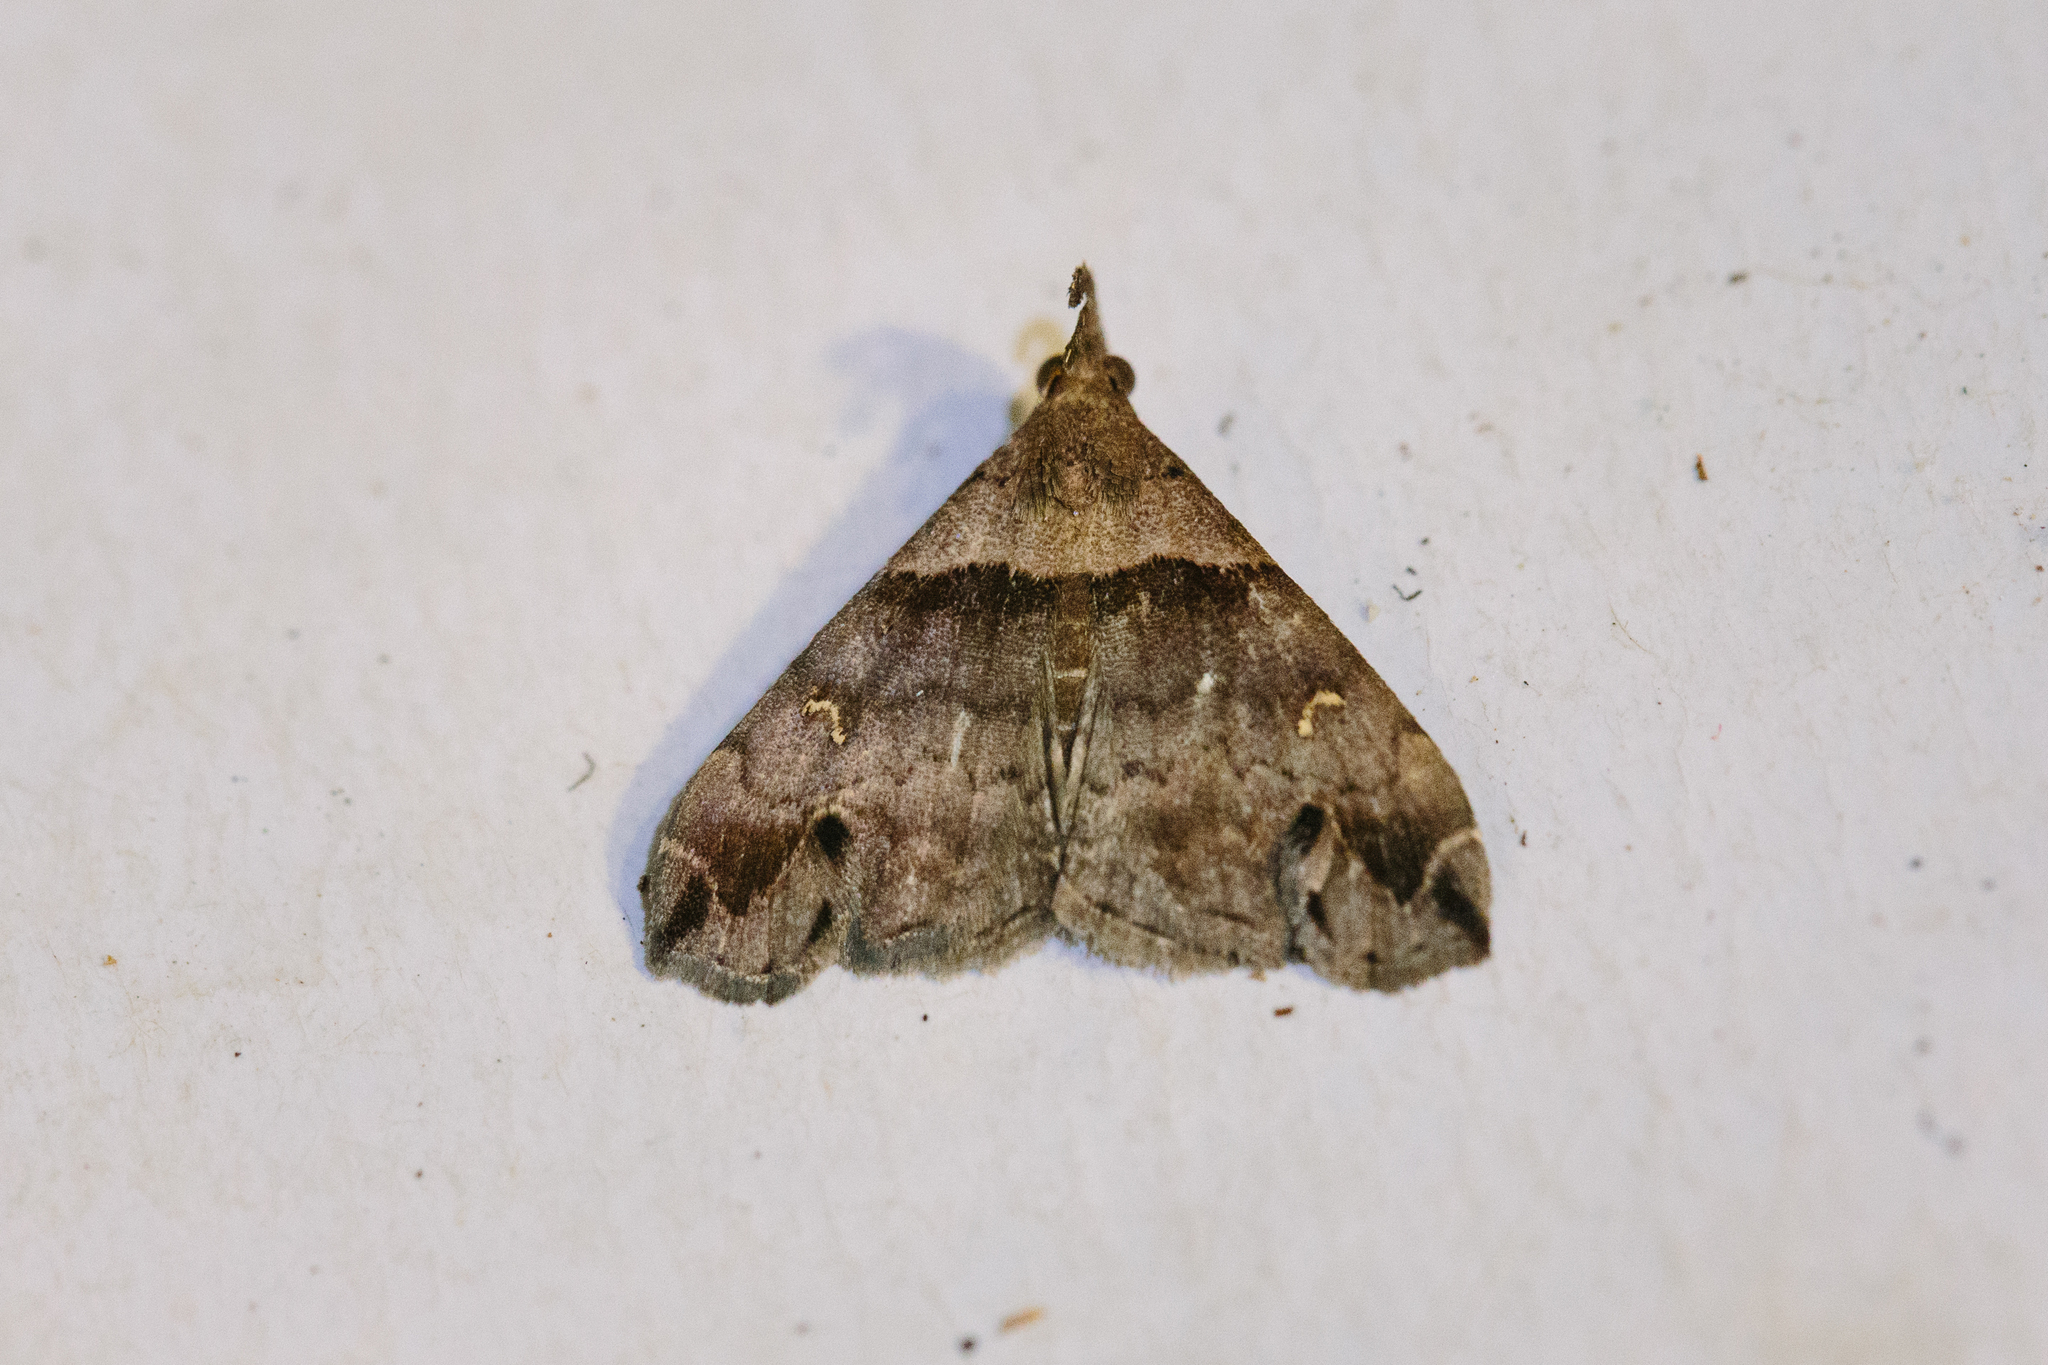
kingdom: Animalia
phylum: Arthropoda
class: Insecta
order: Lepidoptera
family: Erebidae
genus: Lascoria
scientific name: Lascoria ambigualis
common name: Ambiguous moth
